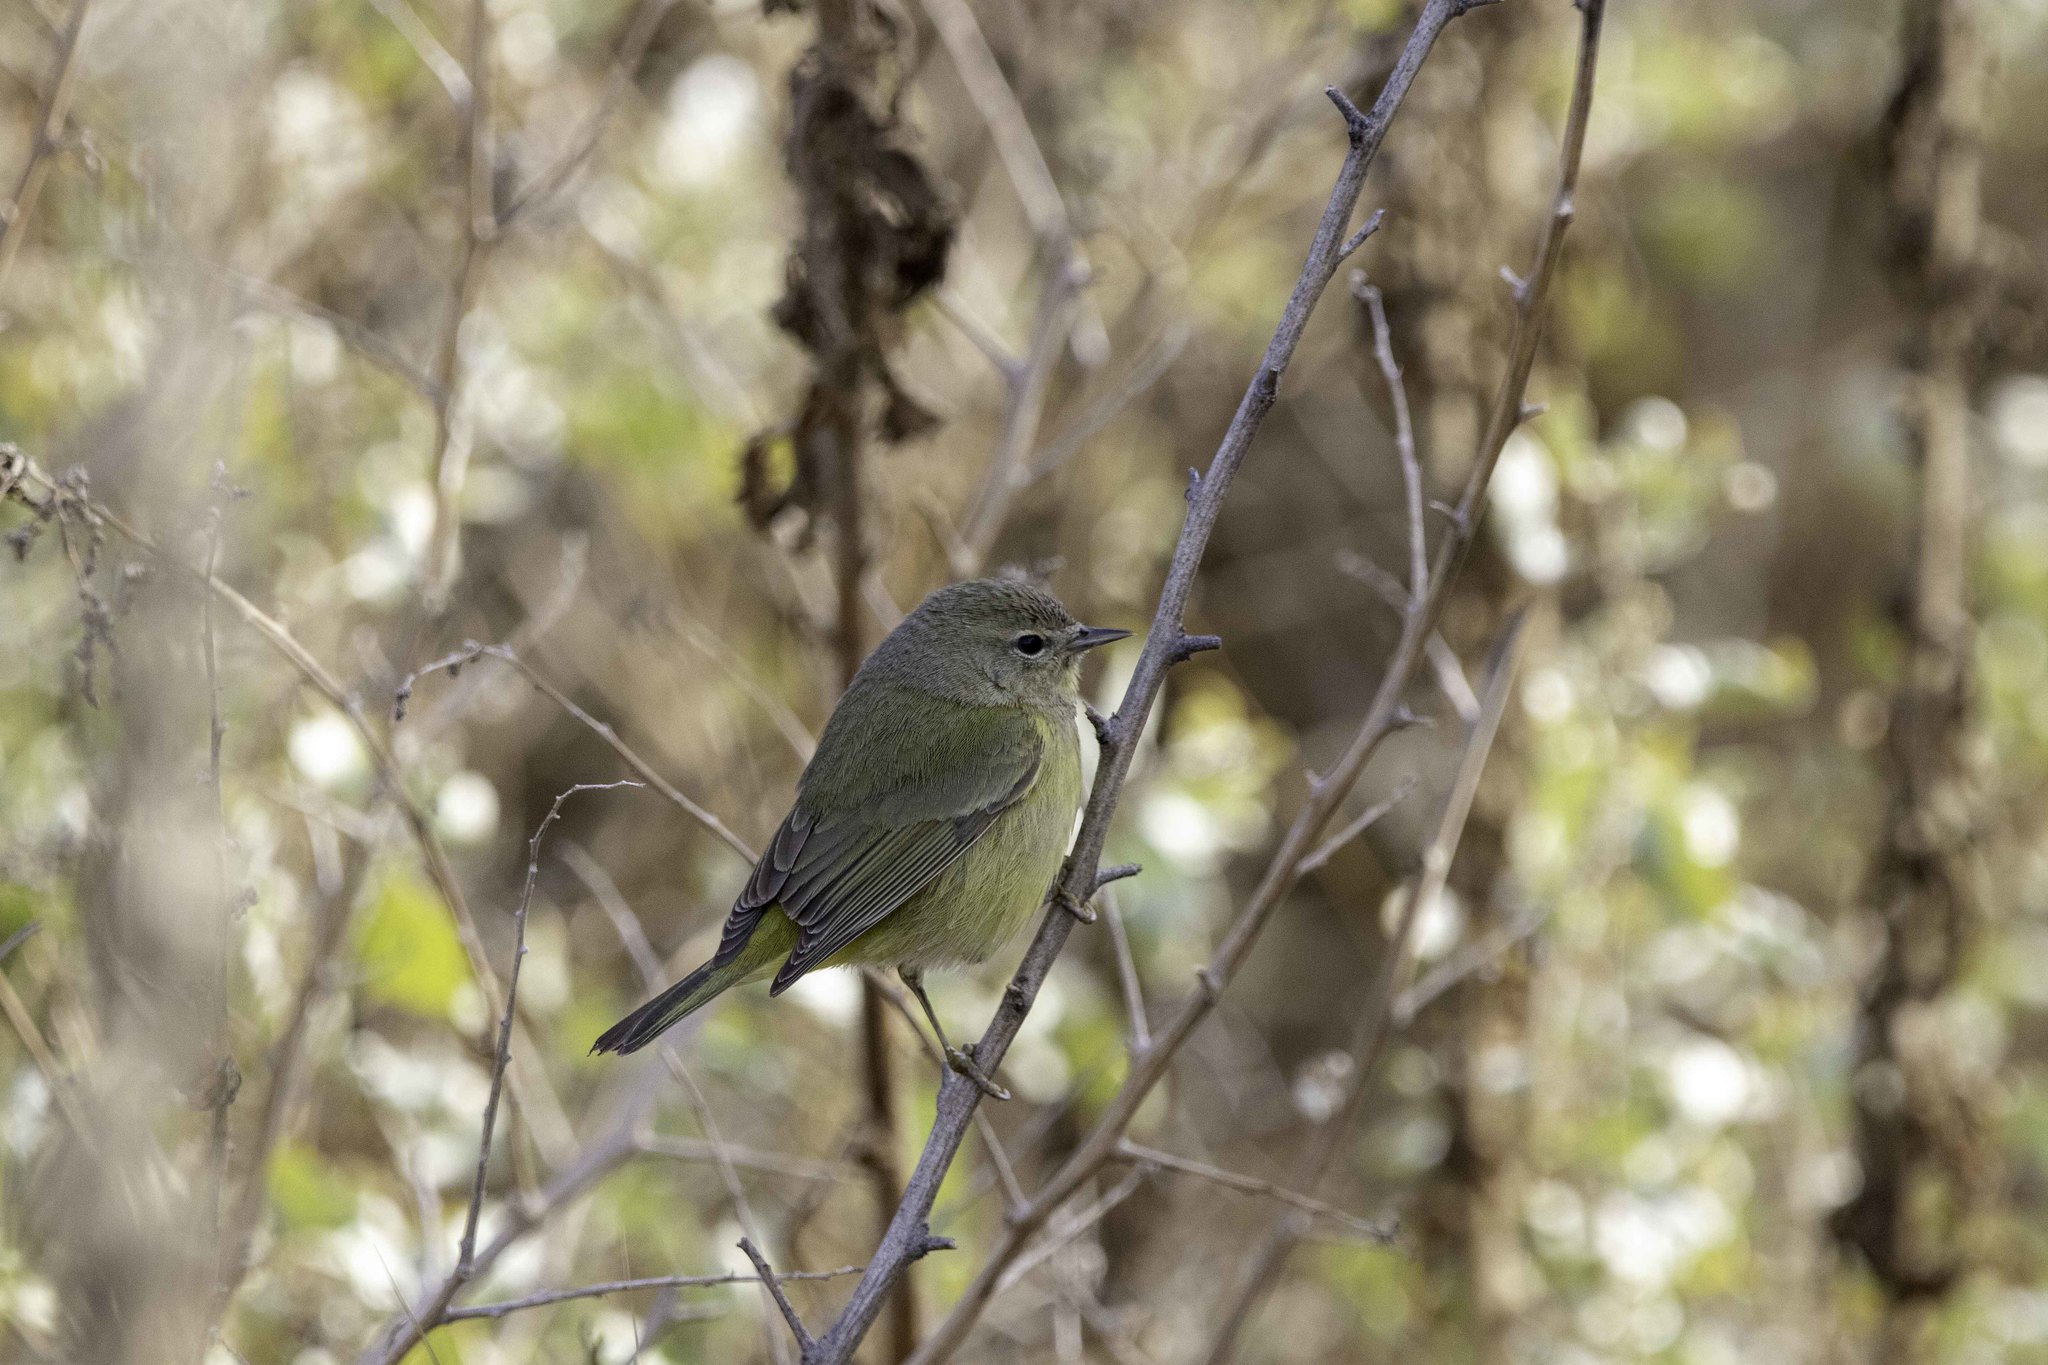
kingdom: Animalia
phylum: Chordata
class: Aves
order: Passeriformes
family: Parulidae
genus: Leiothlypis
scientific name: Leiothlypis celata
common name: Orange-crowned warbler
